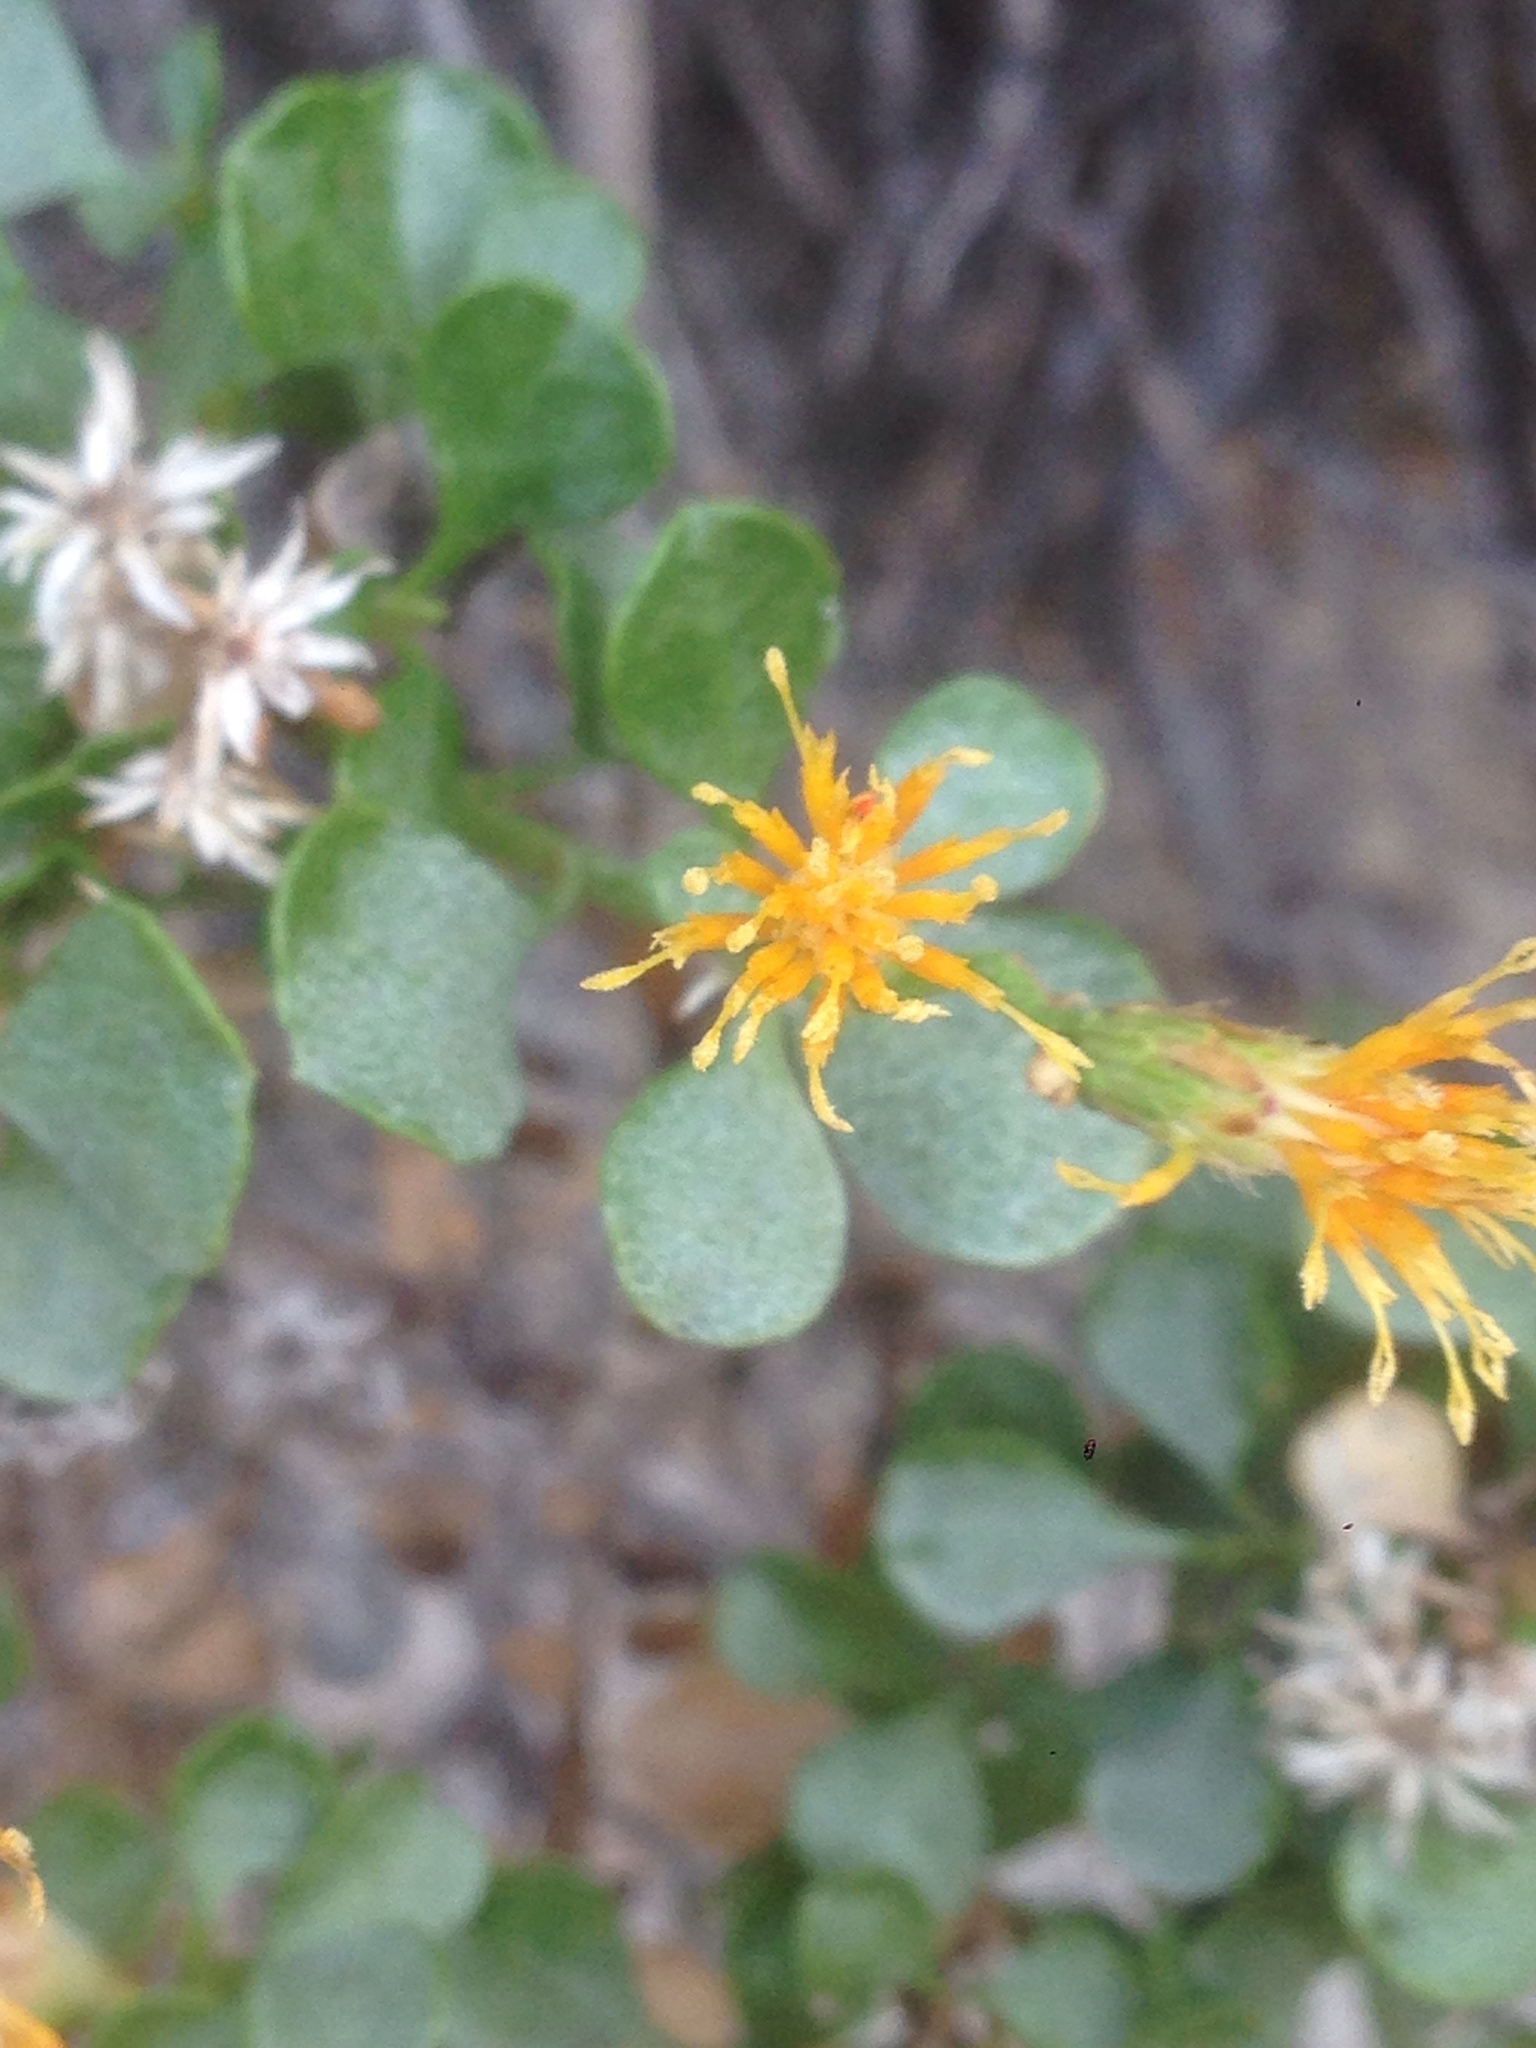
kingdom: Plantae
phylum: Tracheophyta
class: Magnoliopsida
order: Asterales
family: Asteraceae
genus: Ericameria
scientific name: Ericameria cuneata
